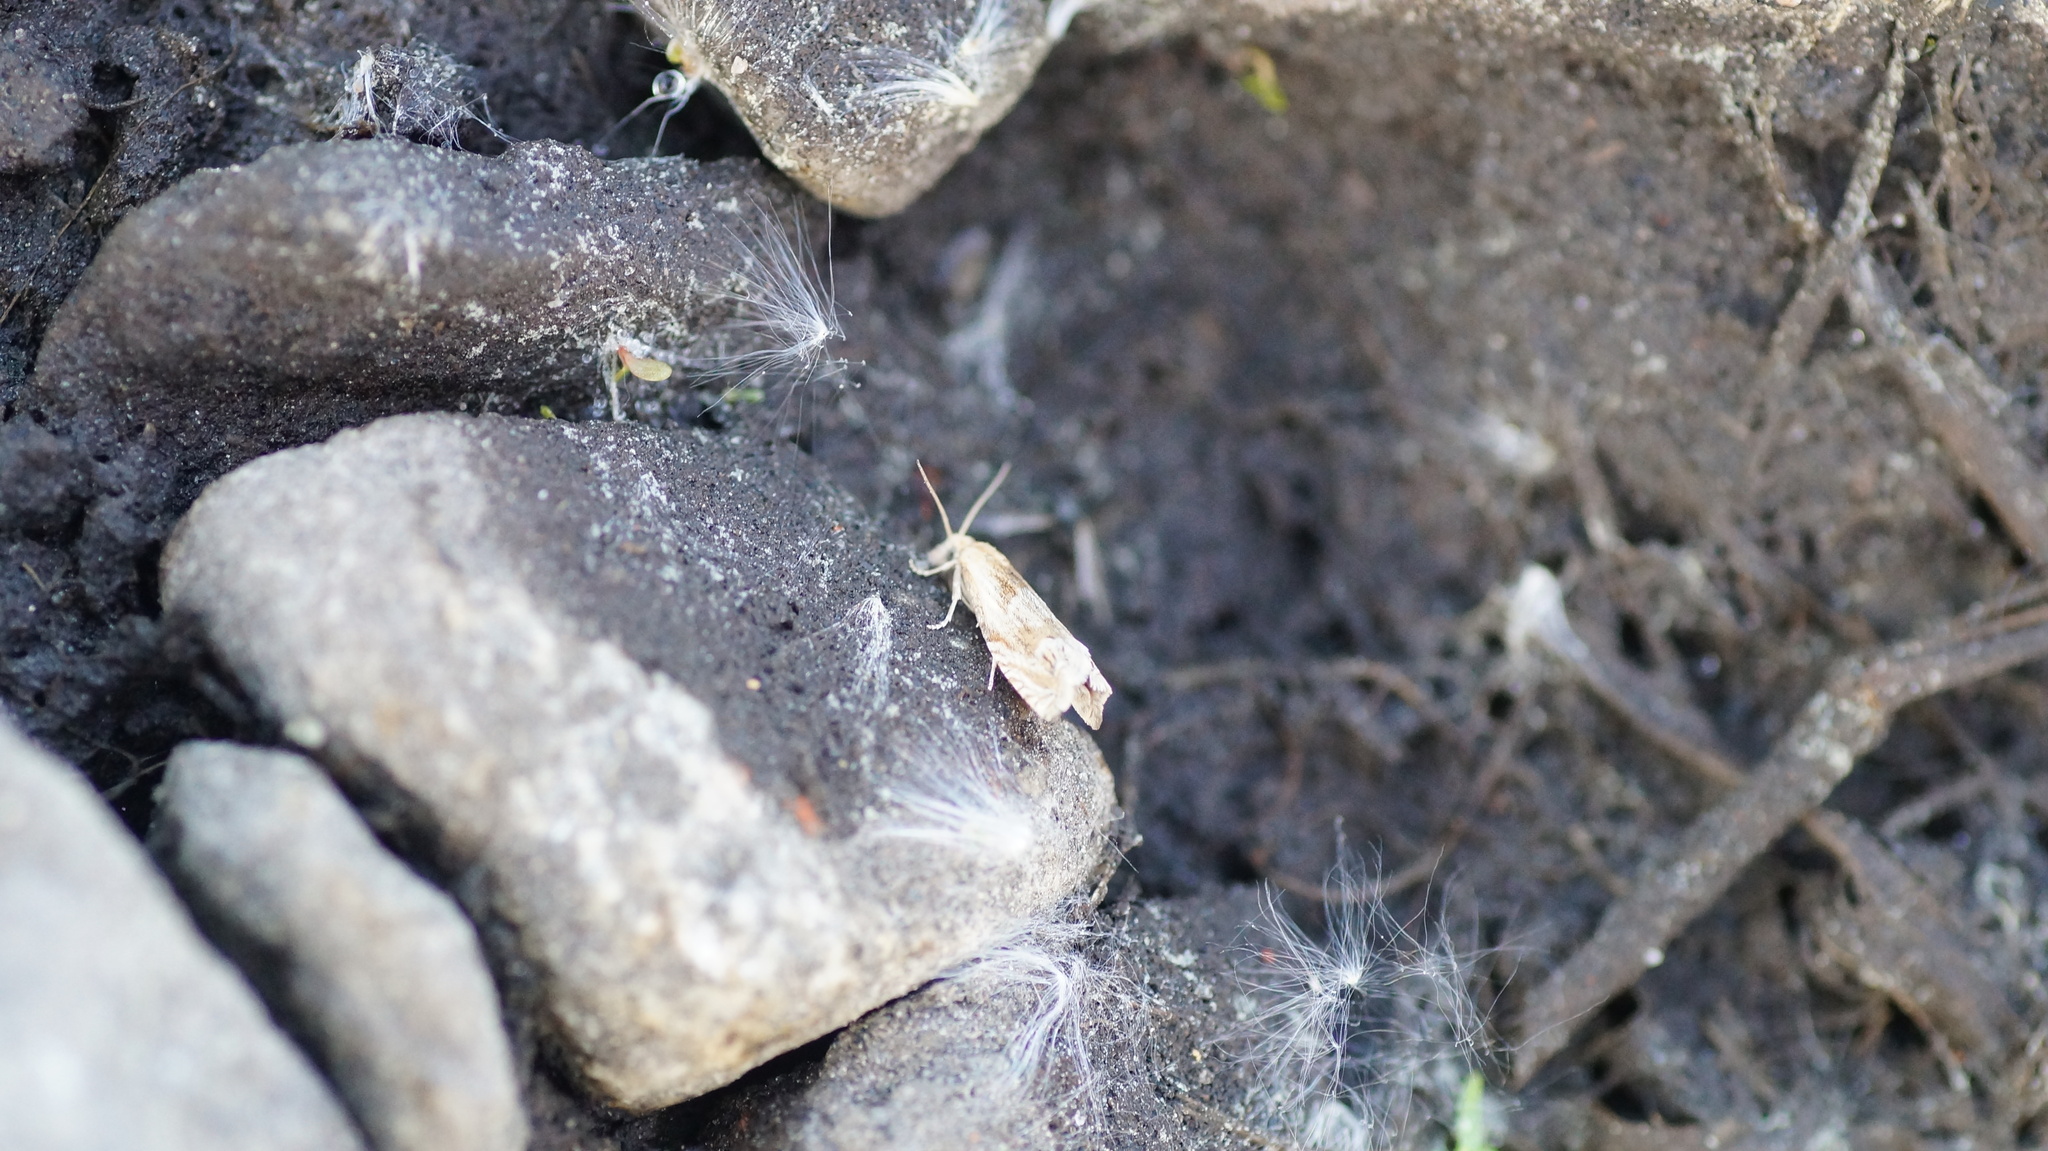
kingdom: Animalia
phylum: Arthropoda
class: Insecta
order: Lepidoptera
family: Tortricidae
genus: Eucosma
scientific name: Eucosma
